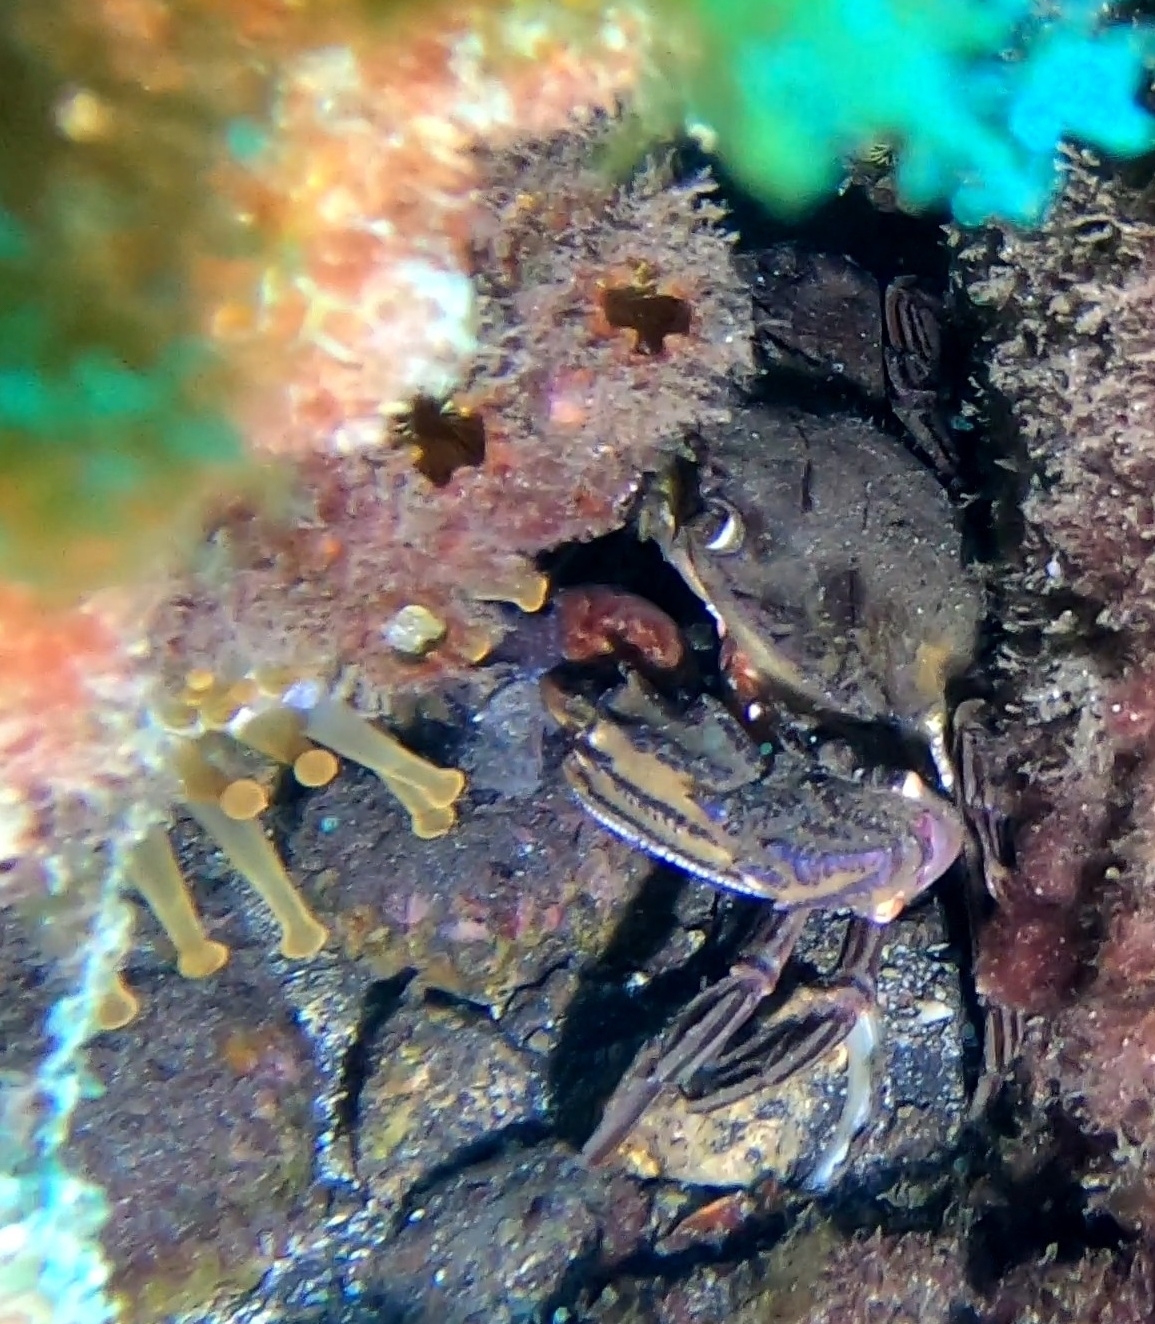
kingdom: Animalia
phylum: Arthropoda
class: Malacostraca
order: Decapoda
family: Portunidae
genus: Cronius
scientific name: Cronius ruber
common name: Red crab
